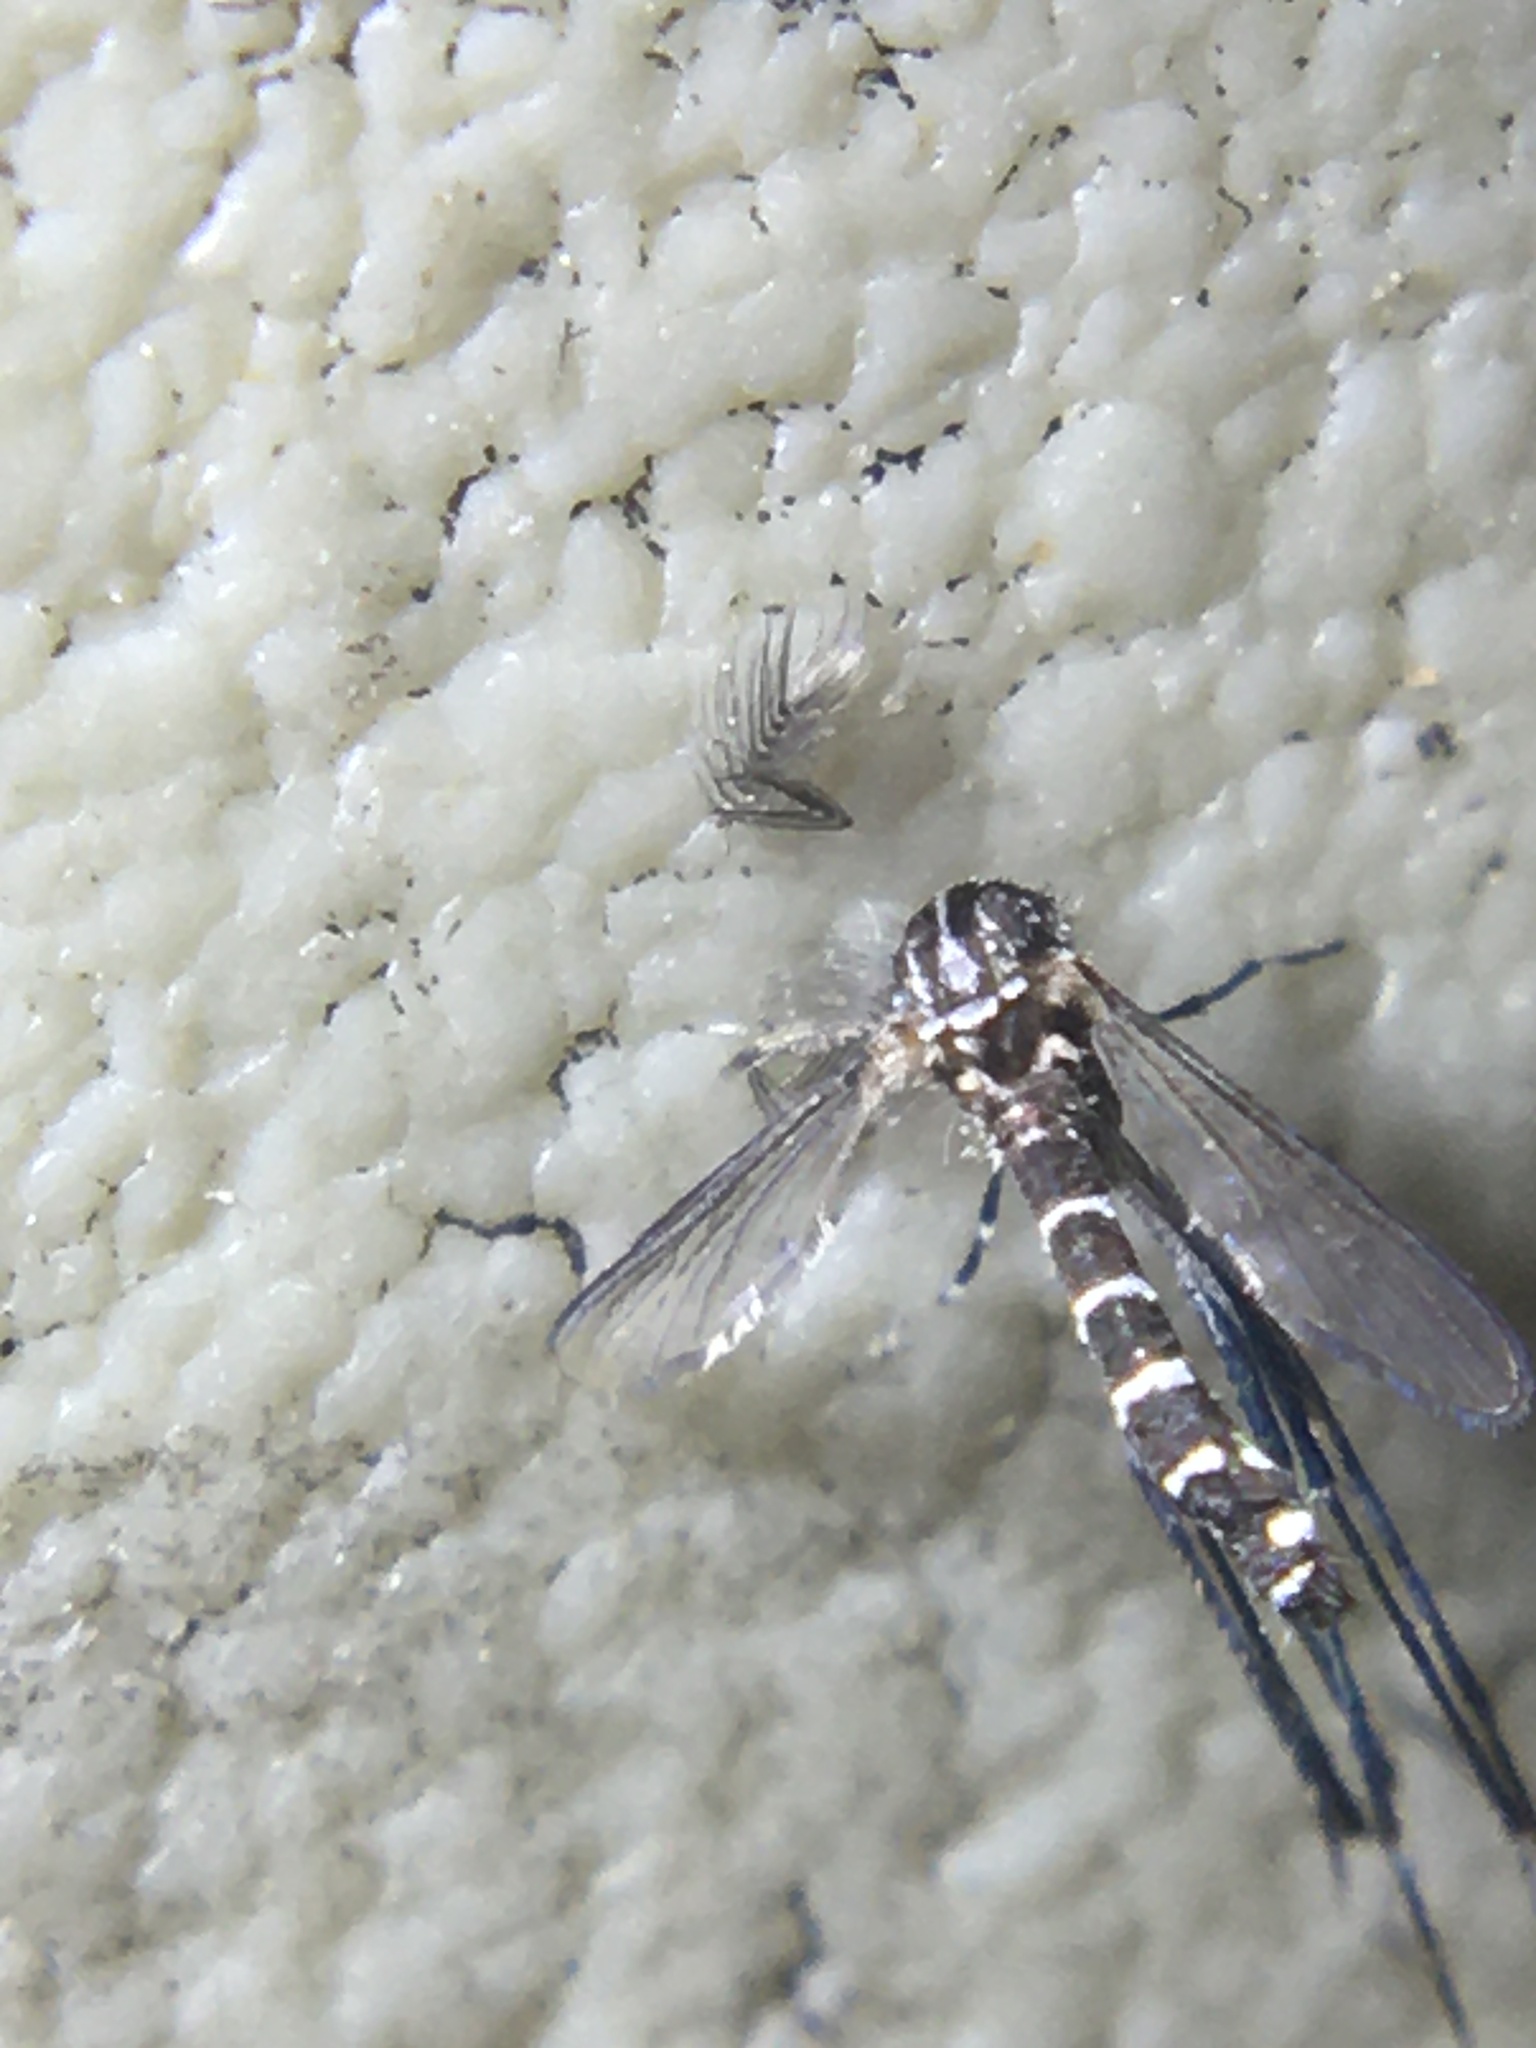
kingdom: Animalia
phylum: Arthropoda
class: Insecta
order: Diptera
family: Culicidae
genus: Aedes
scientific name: Aedes albopictus
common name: Tiger mosquito
